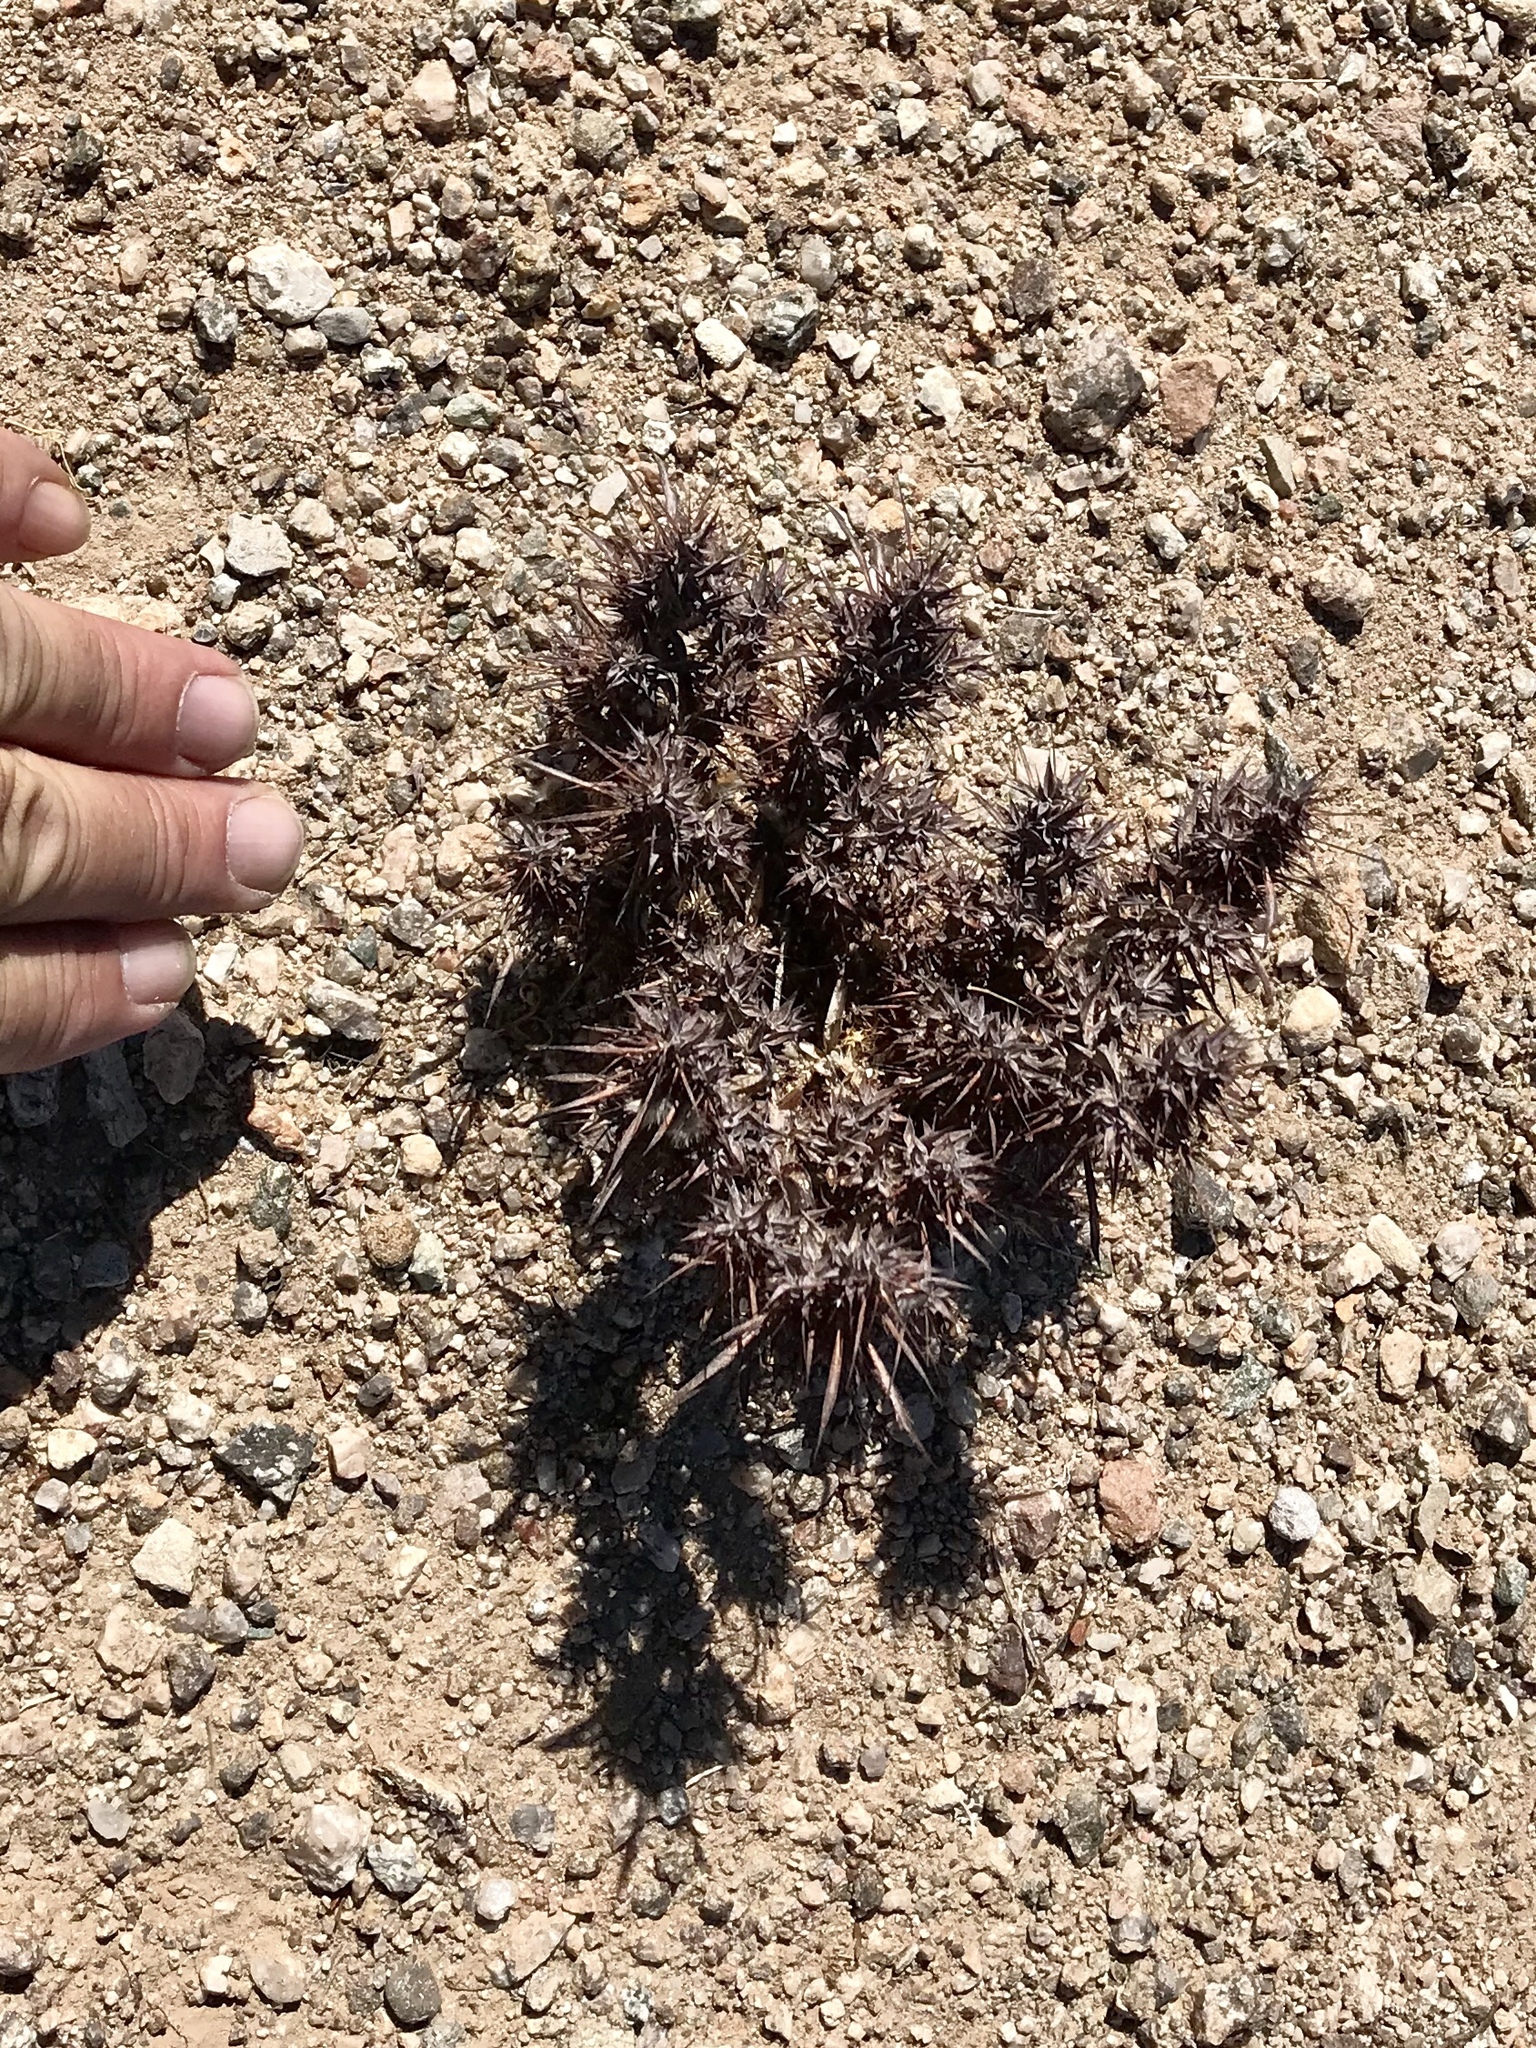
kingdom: Plantae
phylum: Tracheophyta
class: Magnoliopsida
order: Caryophyllales
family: Polygonaceae
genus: Chorizanthe
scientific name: Chorizanthe rigida
